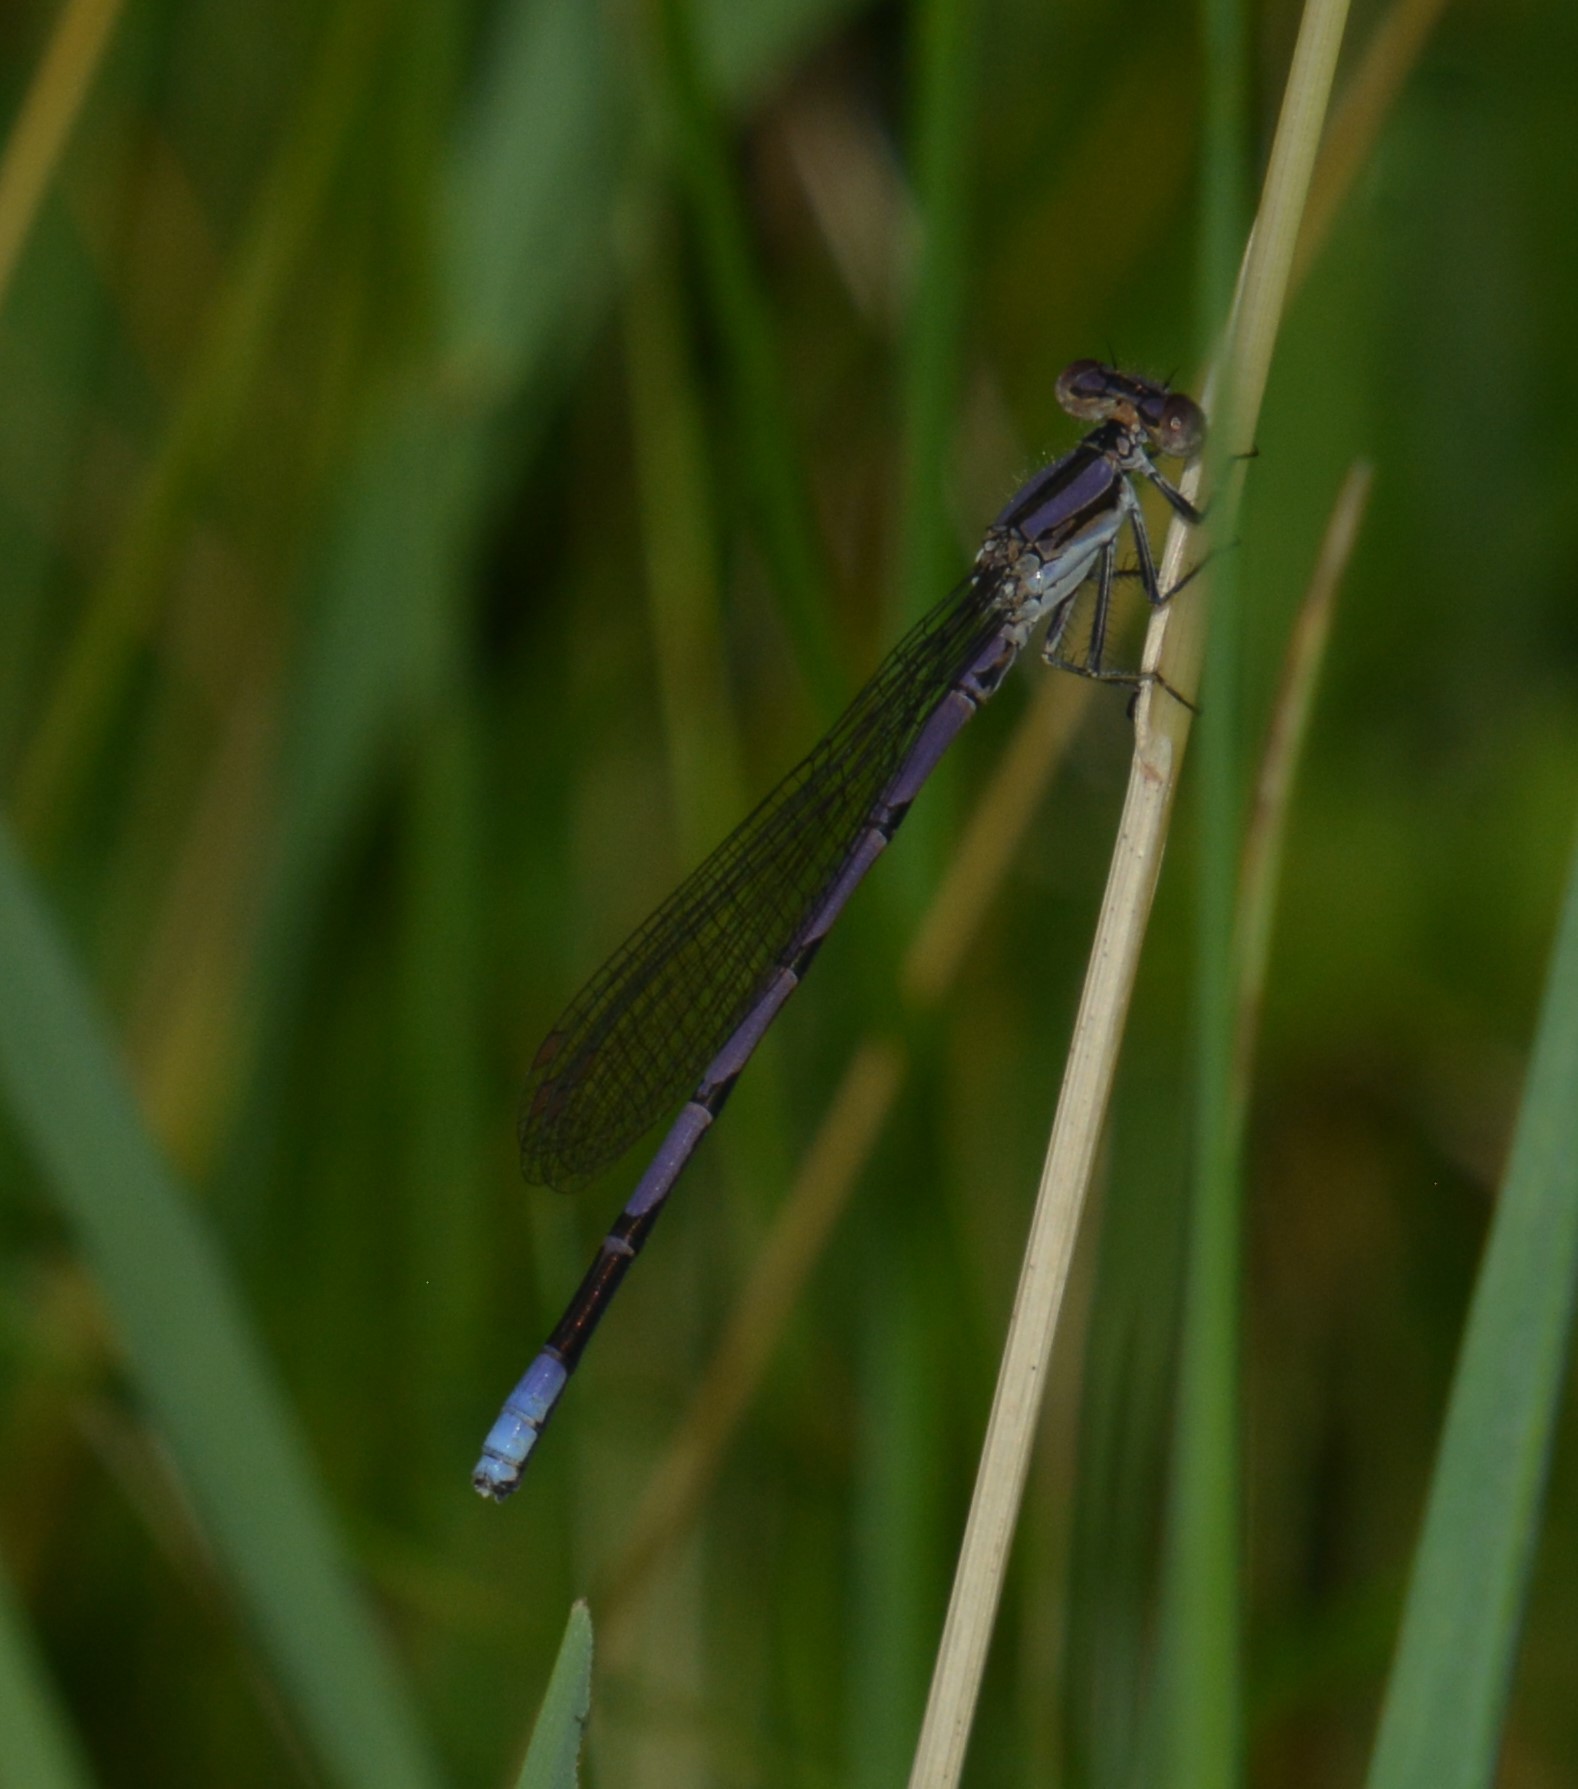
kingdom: Animalia
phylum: Arthropoda
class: Insecta
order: Odonata
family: Coenagrionidae
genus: Argia
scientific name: Argia fumipennis
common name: Variable dancer
